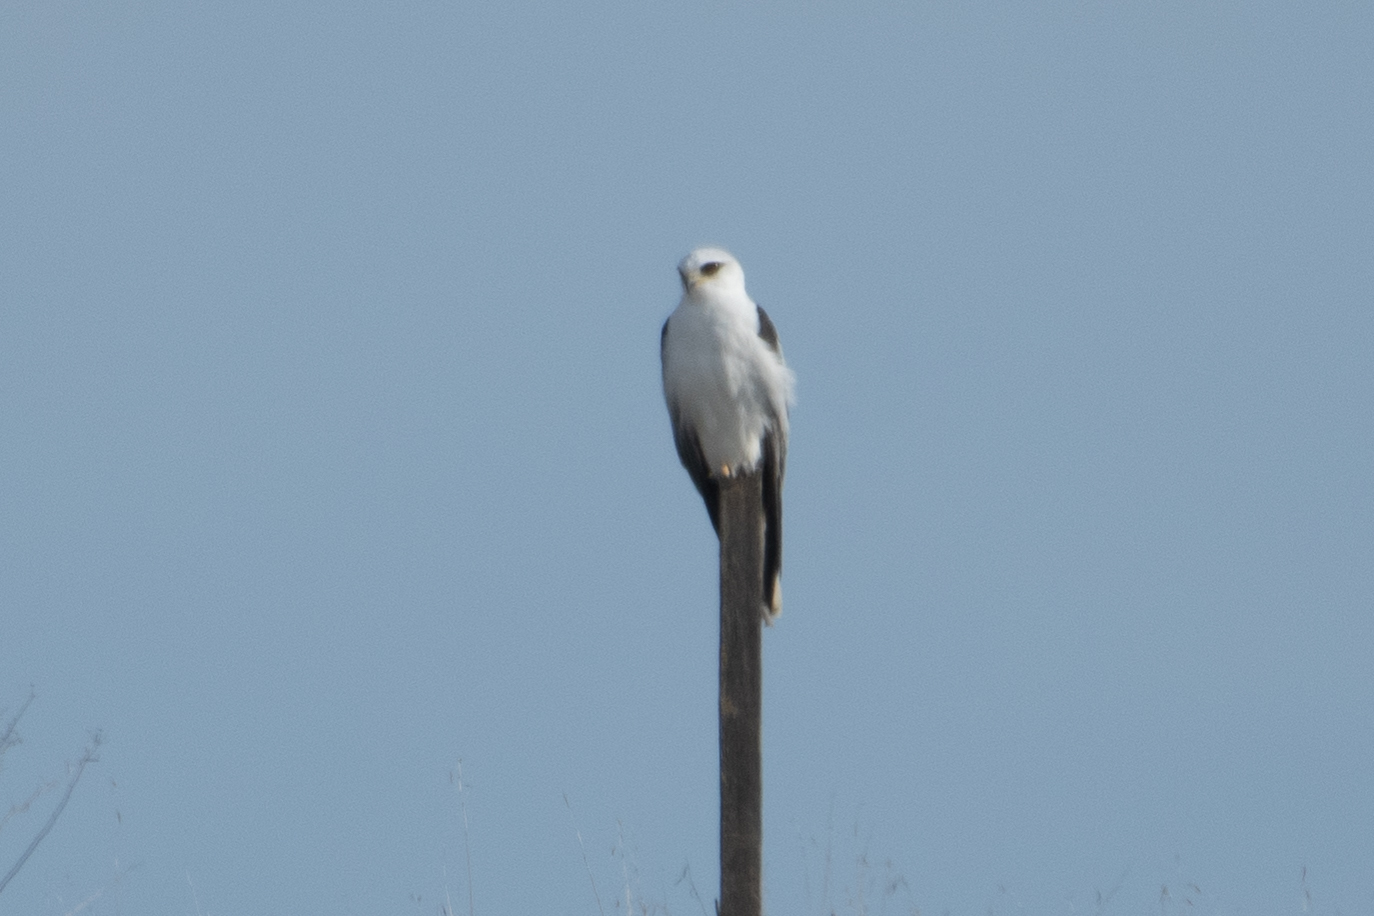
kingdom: Animalia
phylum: Chordata
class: Aves
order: Accipitriformes
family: Accipitridae
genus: Elanus
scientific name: Elanus leucurus
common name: White-tailed kite
